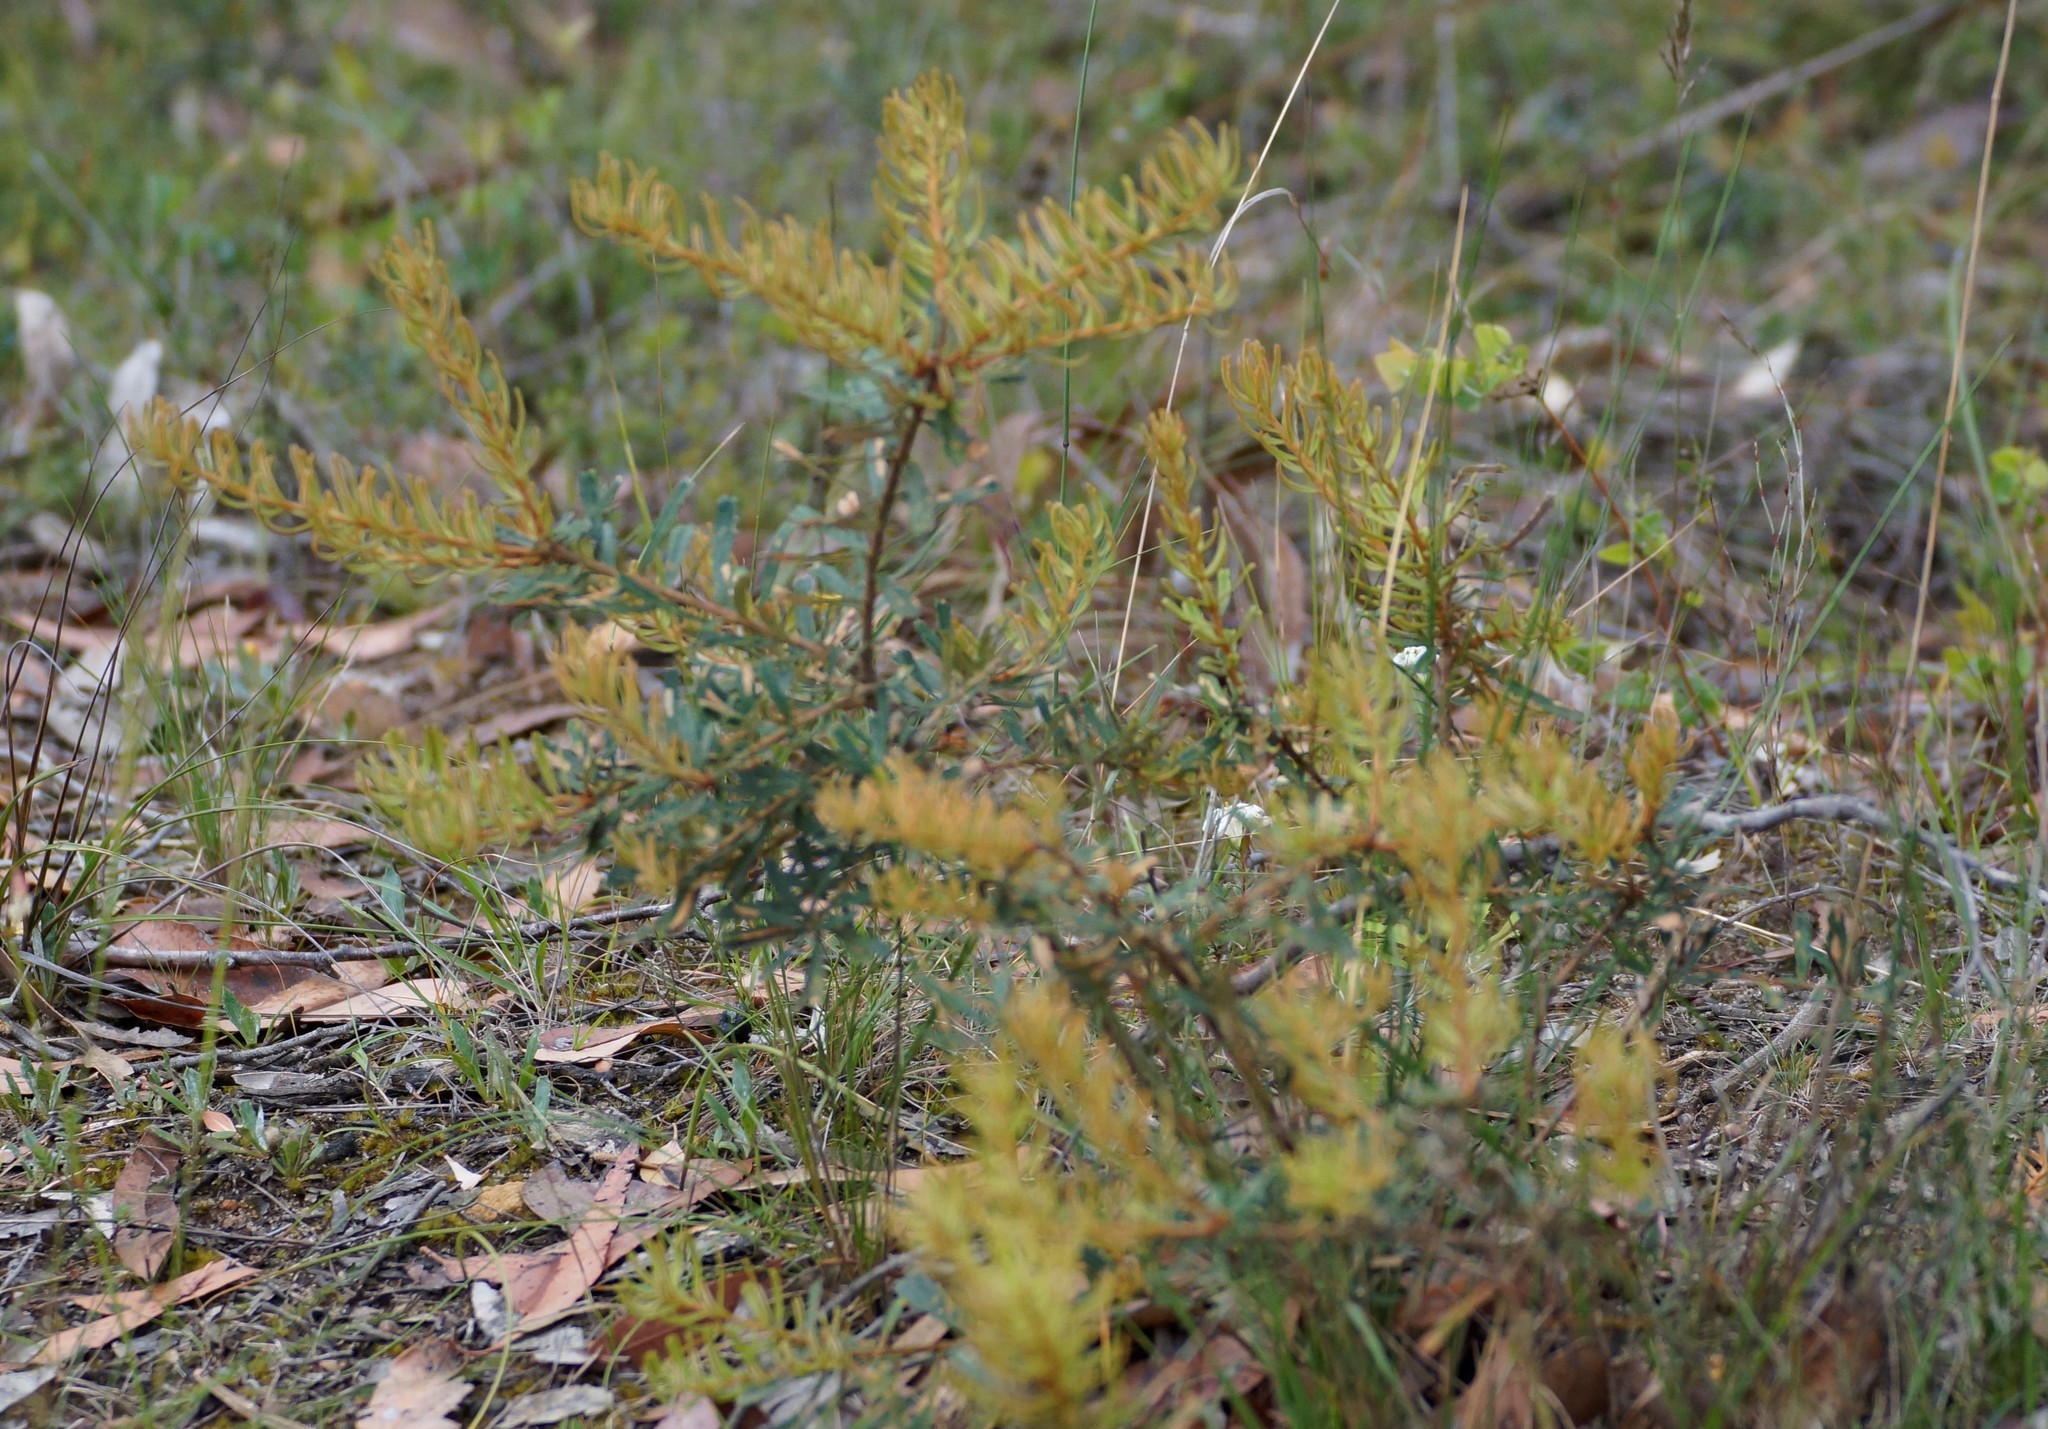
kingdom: Plantae
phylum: Tracheophyta
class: Magnoliopsida
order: Proteales
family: Proteaceae
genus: Banksia
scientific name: Banksia marginata
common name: Silver banksia
